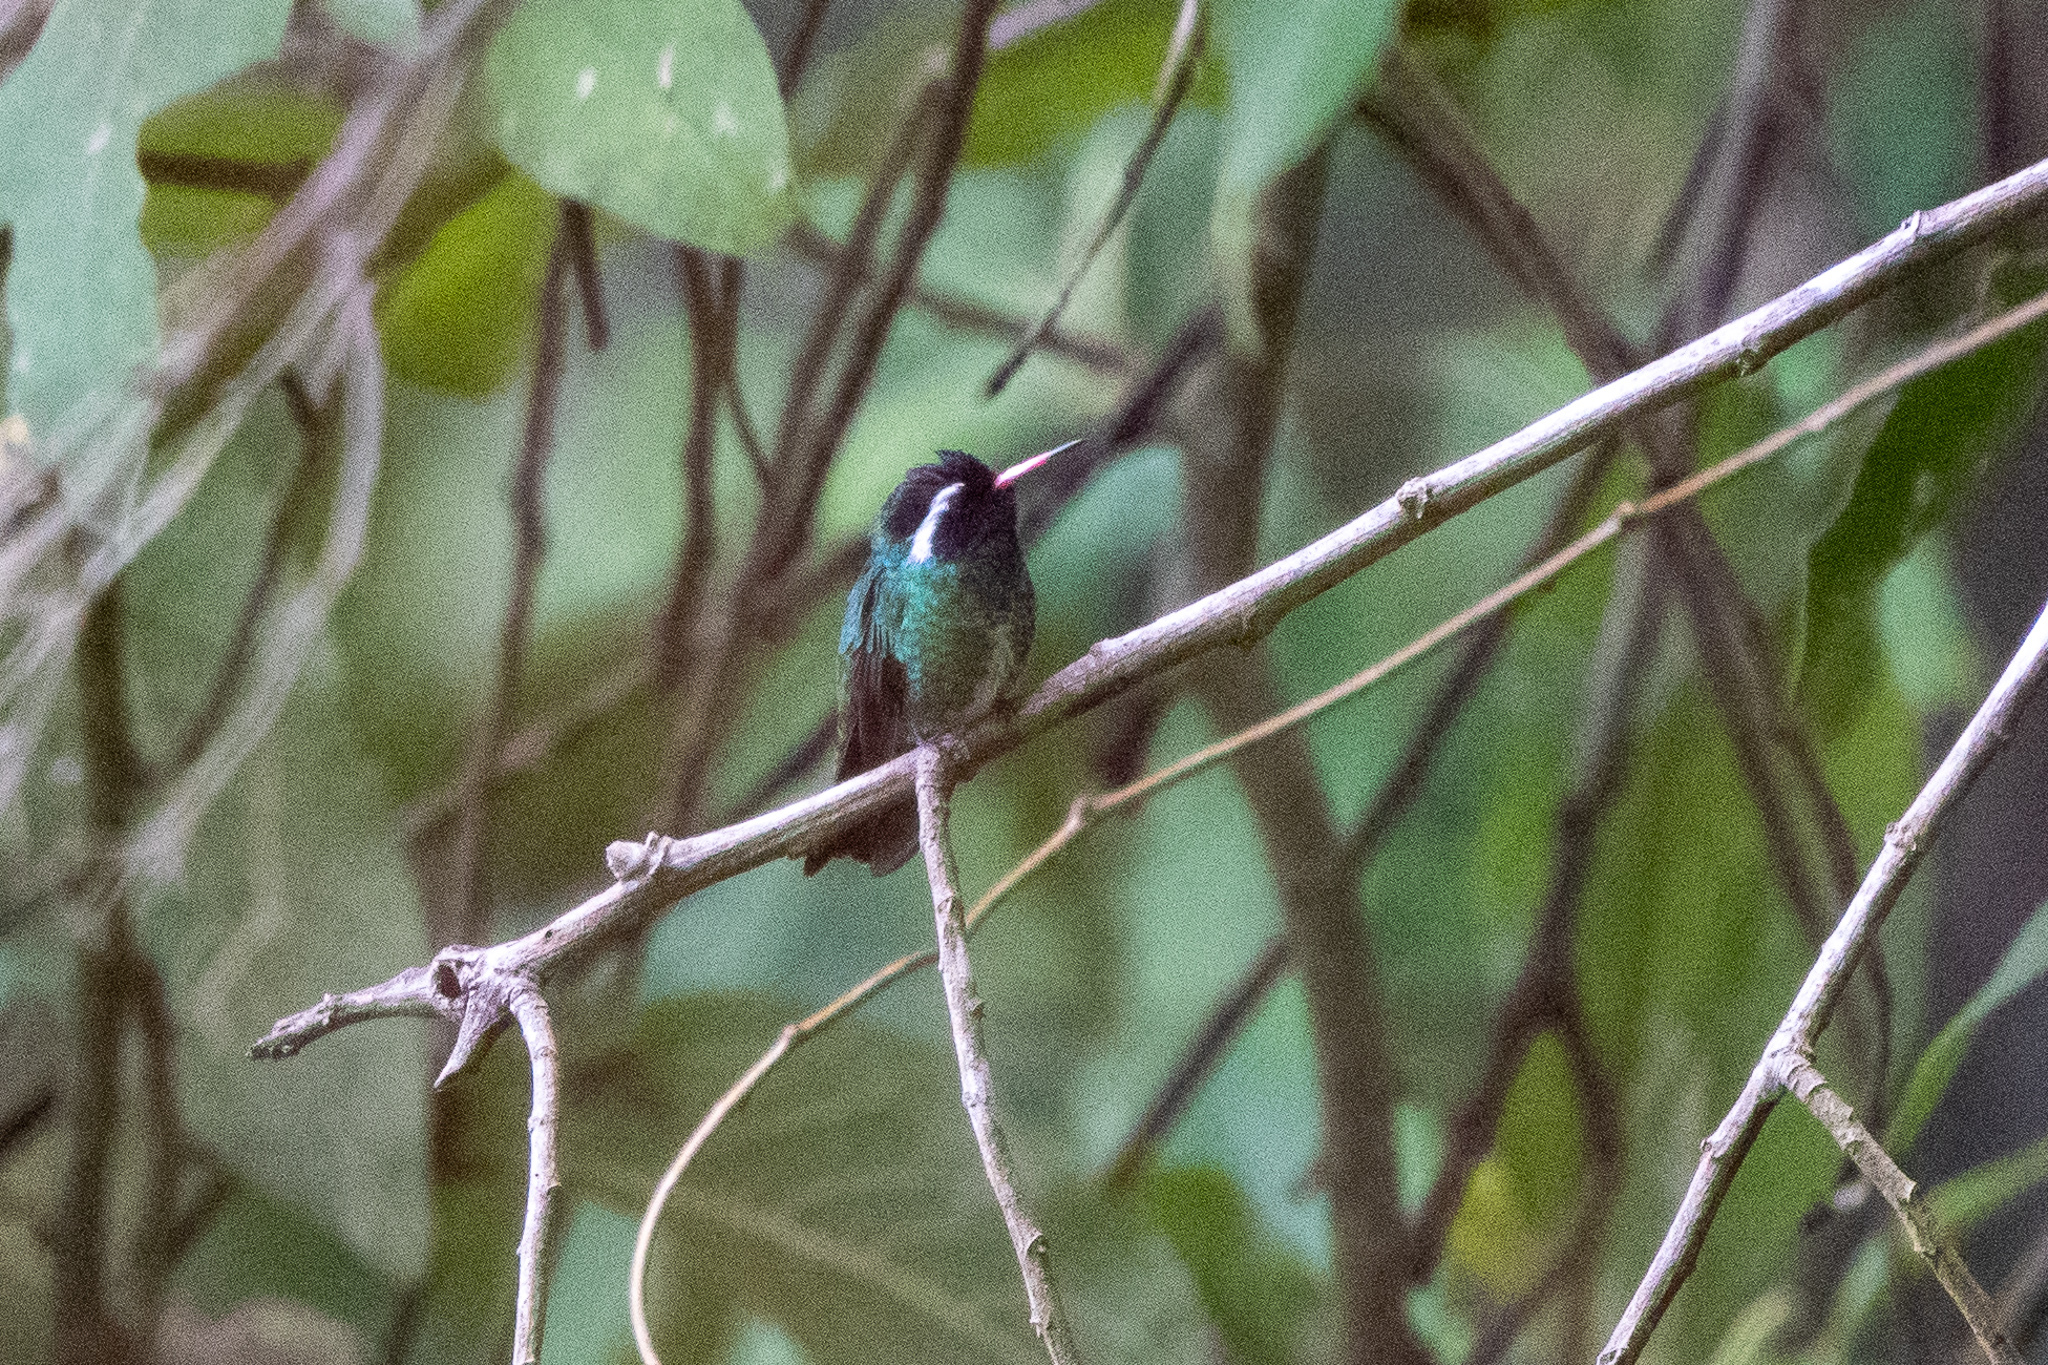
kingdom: Animalia
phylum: Chordata
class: Aves
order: Apodiformes
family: Trochilidae
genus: Basilinna
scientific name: Basilinna leucotis
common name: White-eared hummingbird
